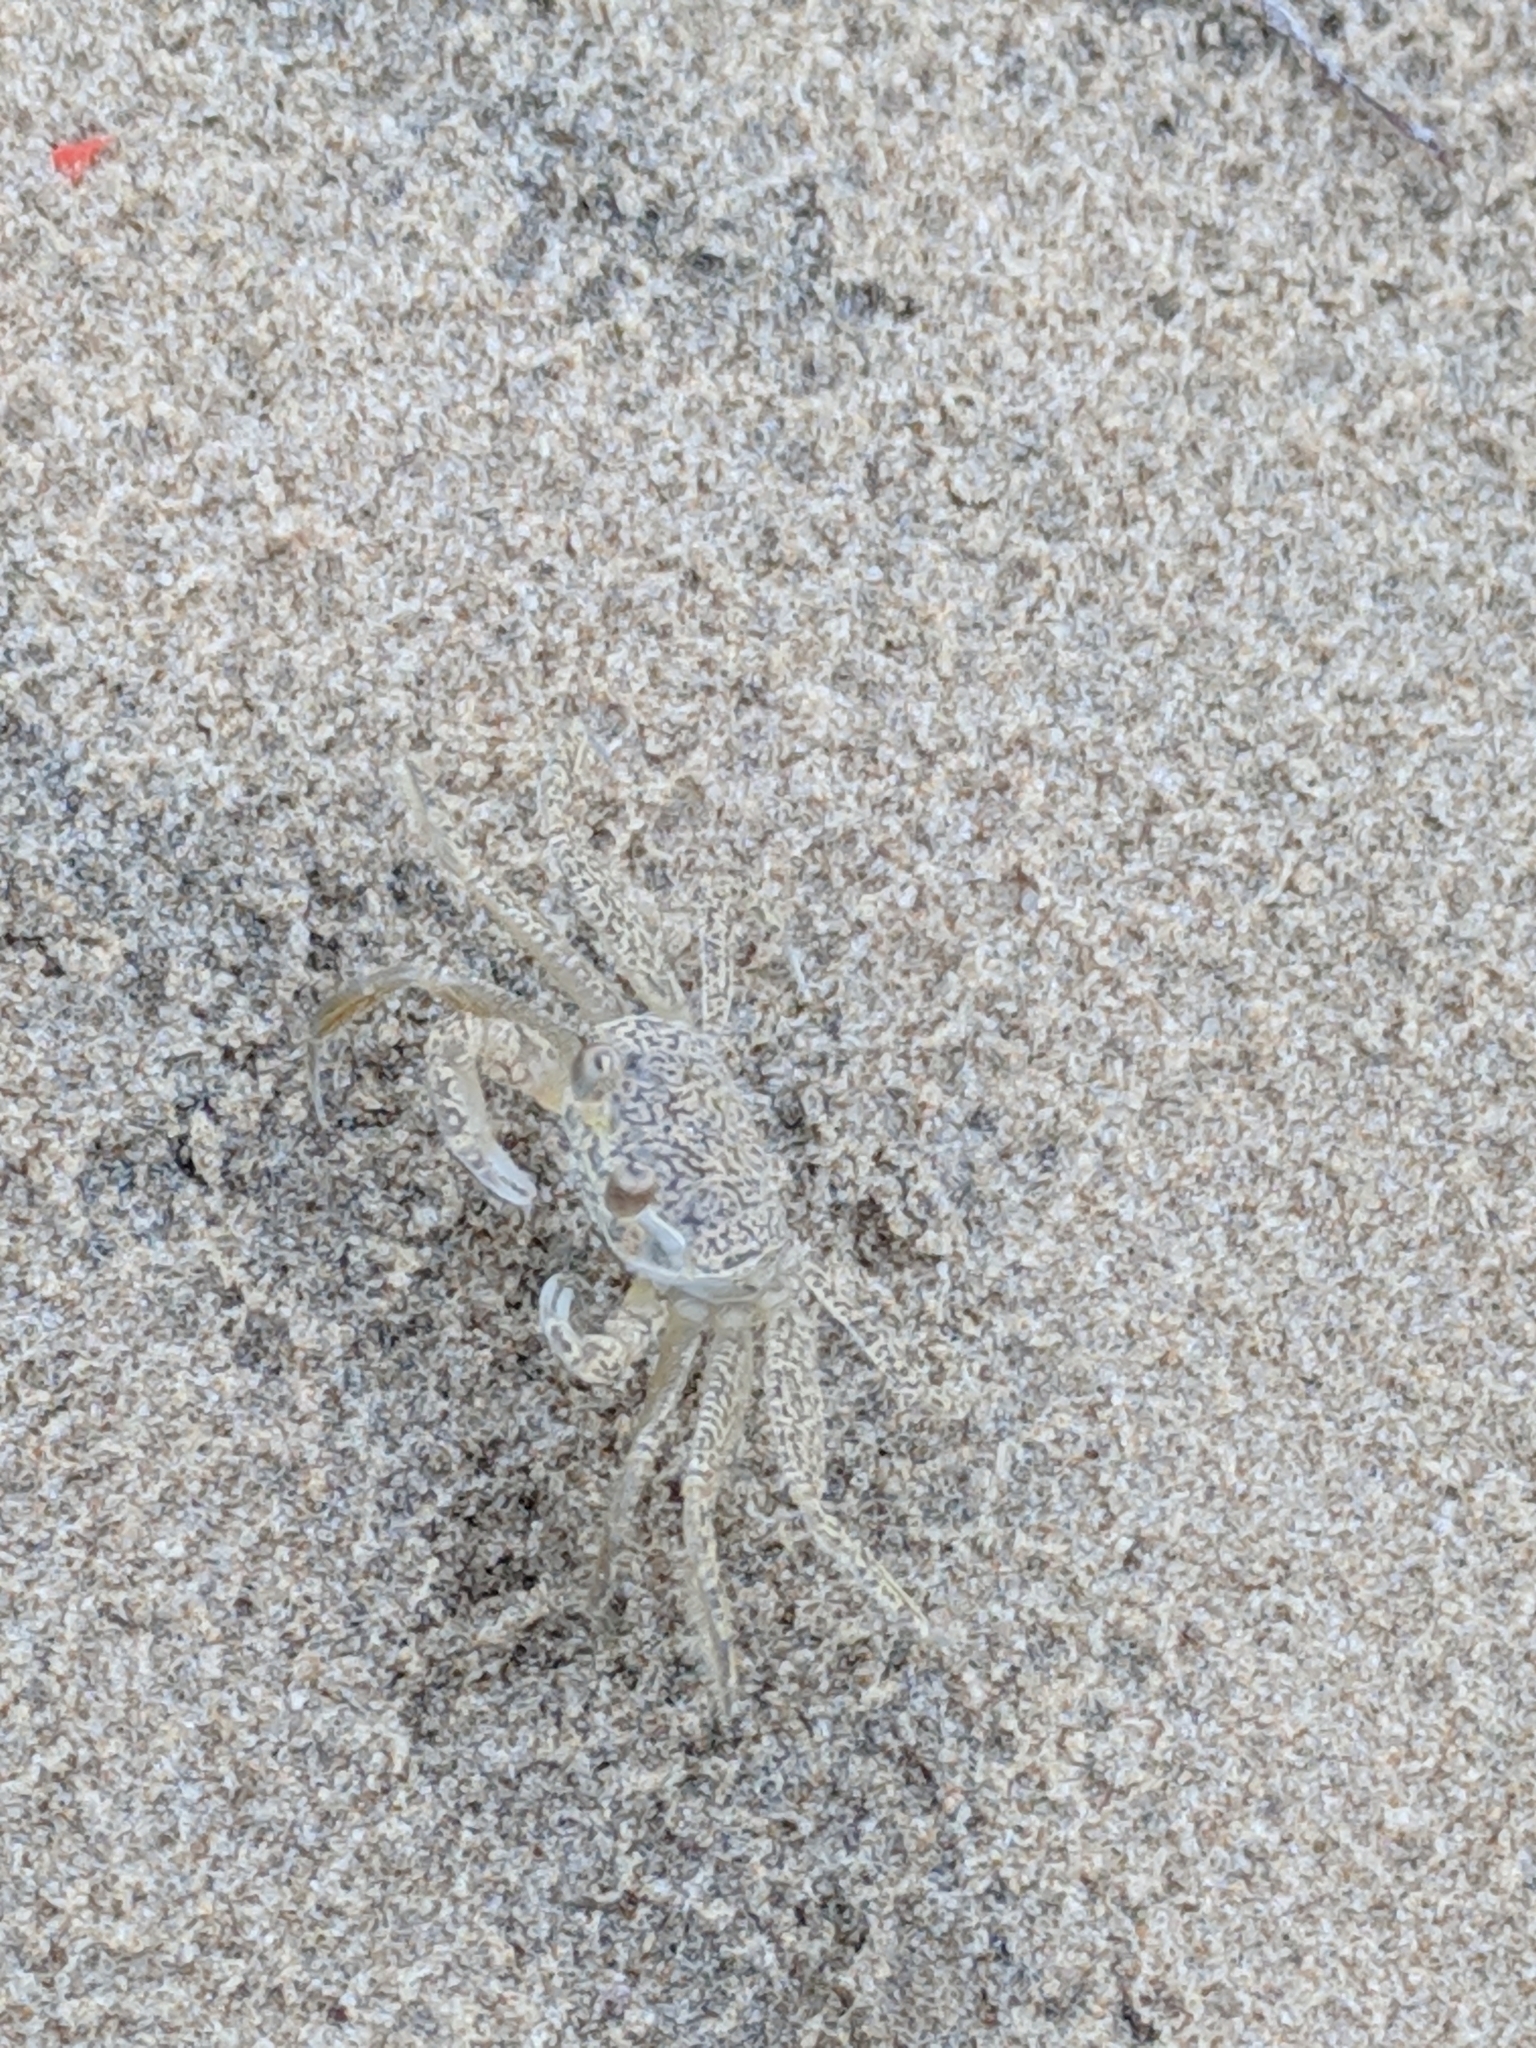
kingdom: Animalia
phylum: Arthropoda
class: Malacostraca
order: Decapoda
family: Ocypodidae
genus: Ocypode
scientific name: Ocypode quadrata
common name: Ghost crab
